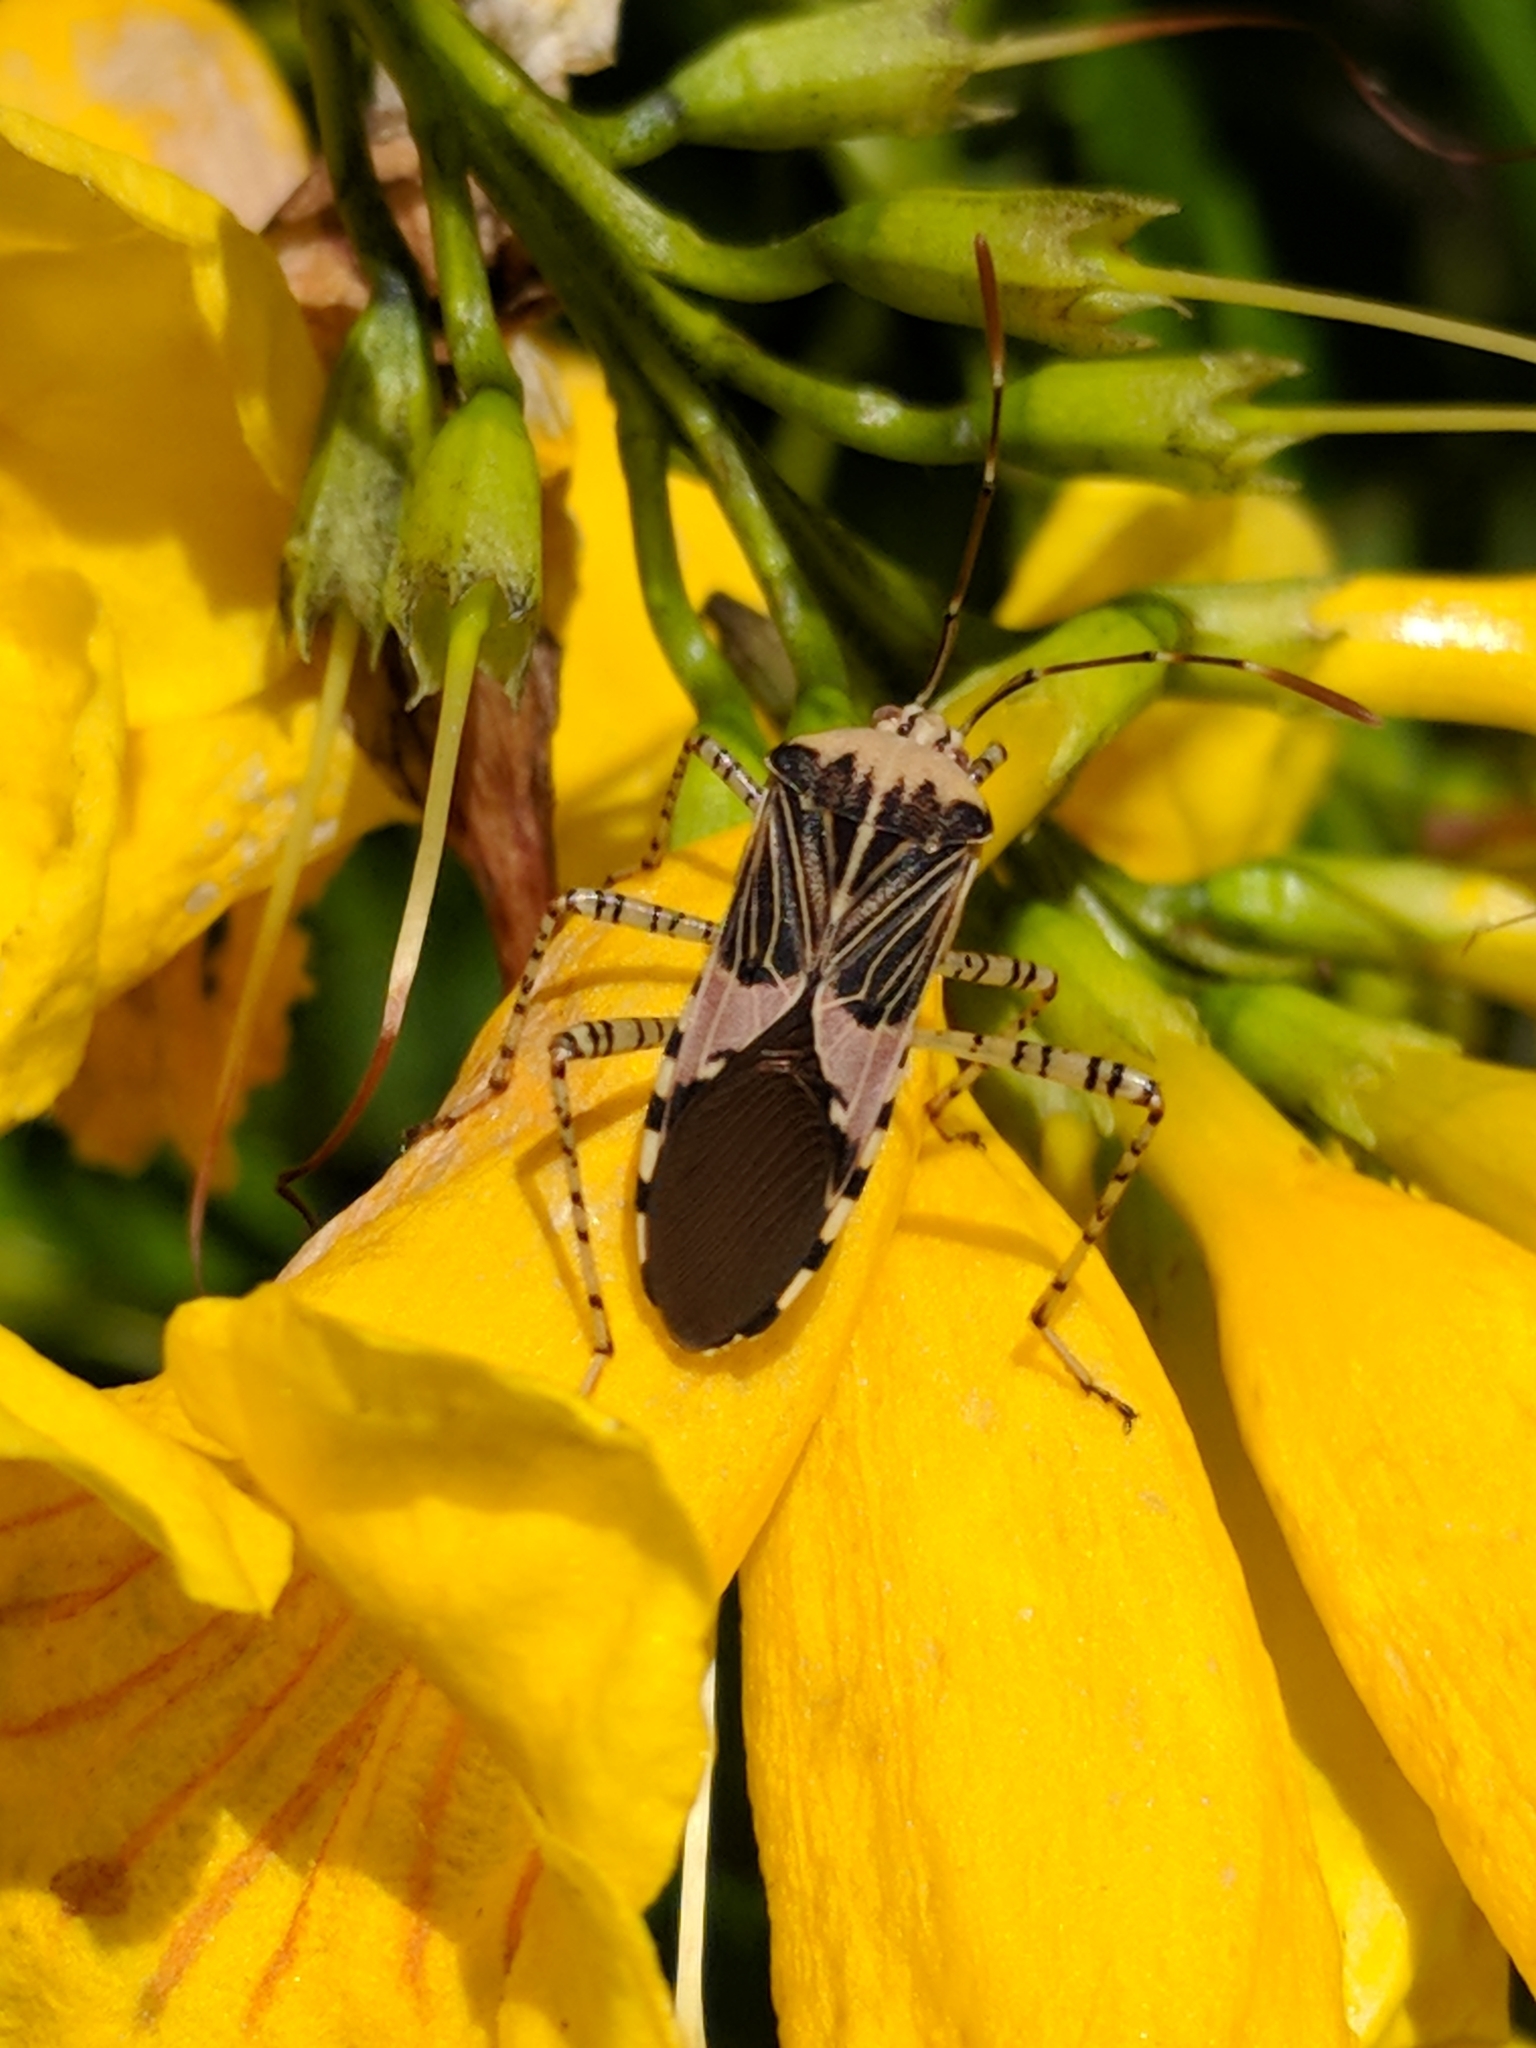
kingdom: Animalia
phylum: Arthropoda
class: Insecta
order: Hemiptera
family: Coreidae
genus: Hypselonotus
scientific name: Hypselonotus punctiventris
